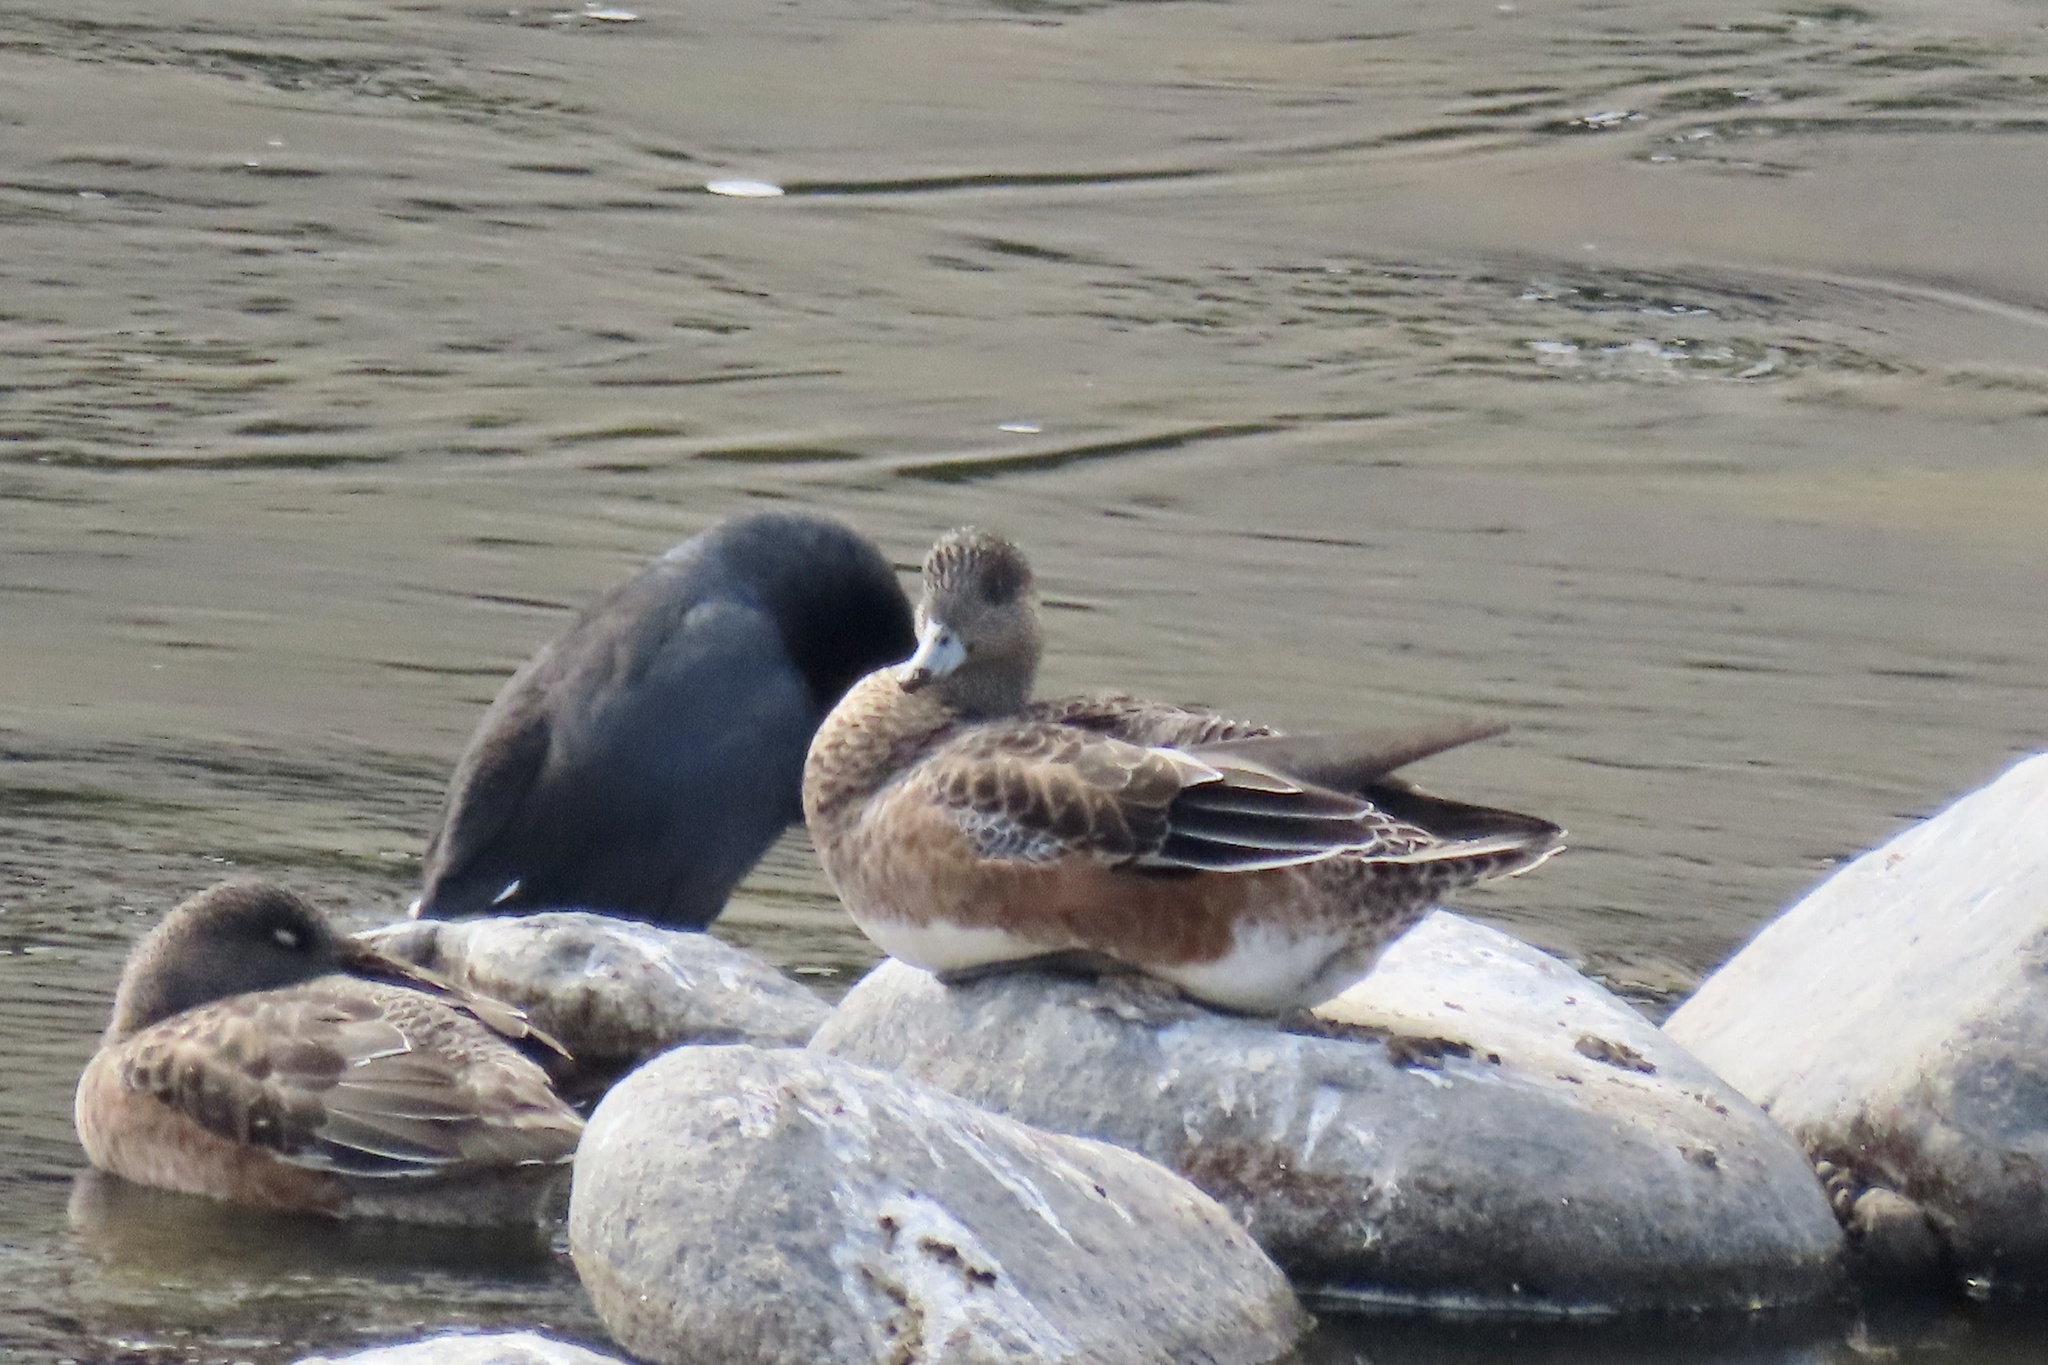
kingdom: Animalia
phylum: Chordata
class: Aves
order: Anseriformes
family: Anatidae
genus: Mareca
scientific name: Mareca americana
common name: American wigeon
